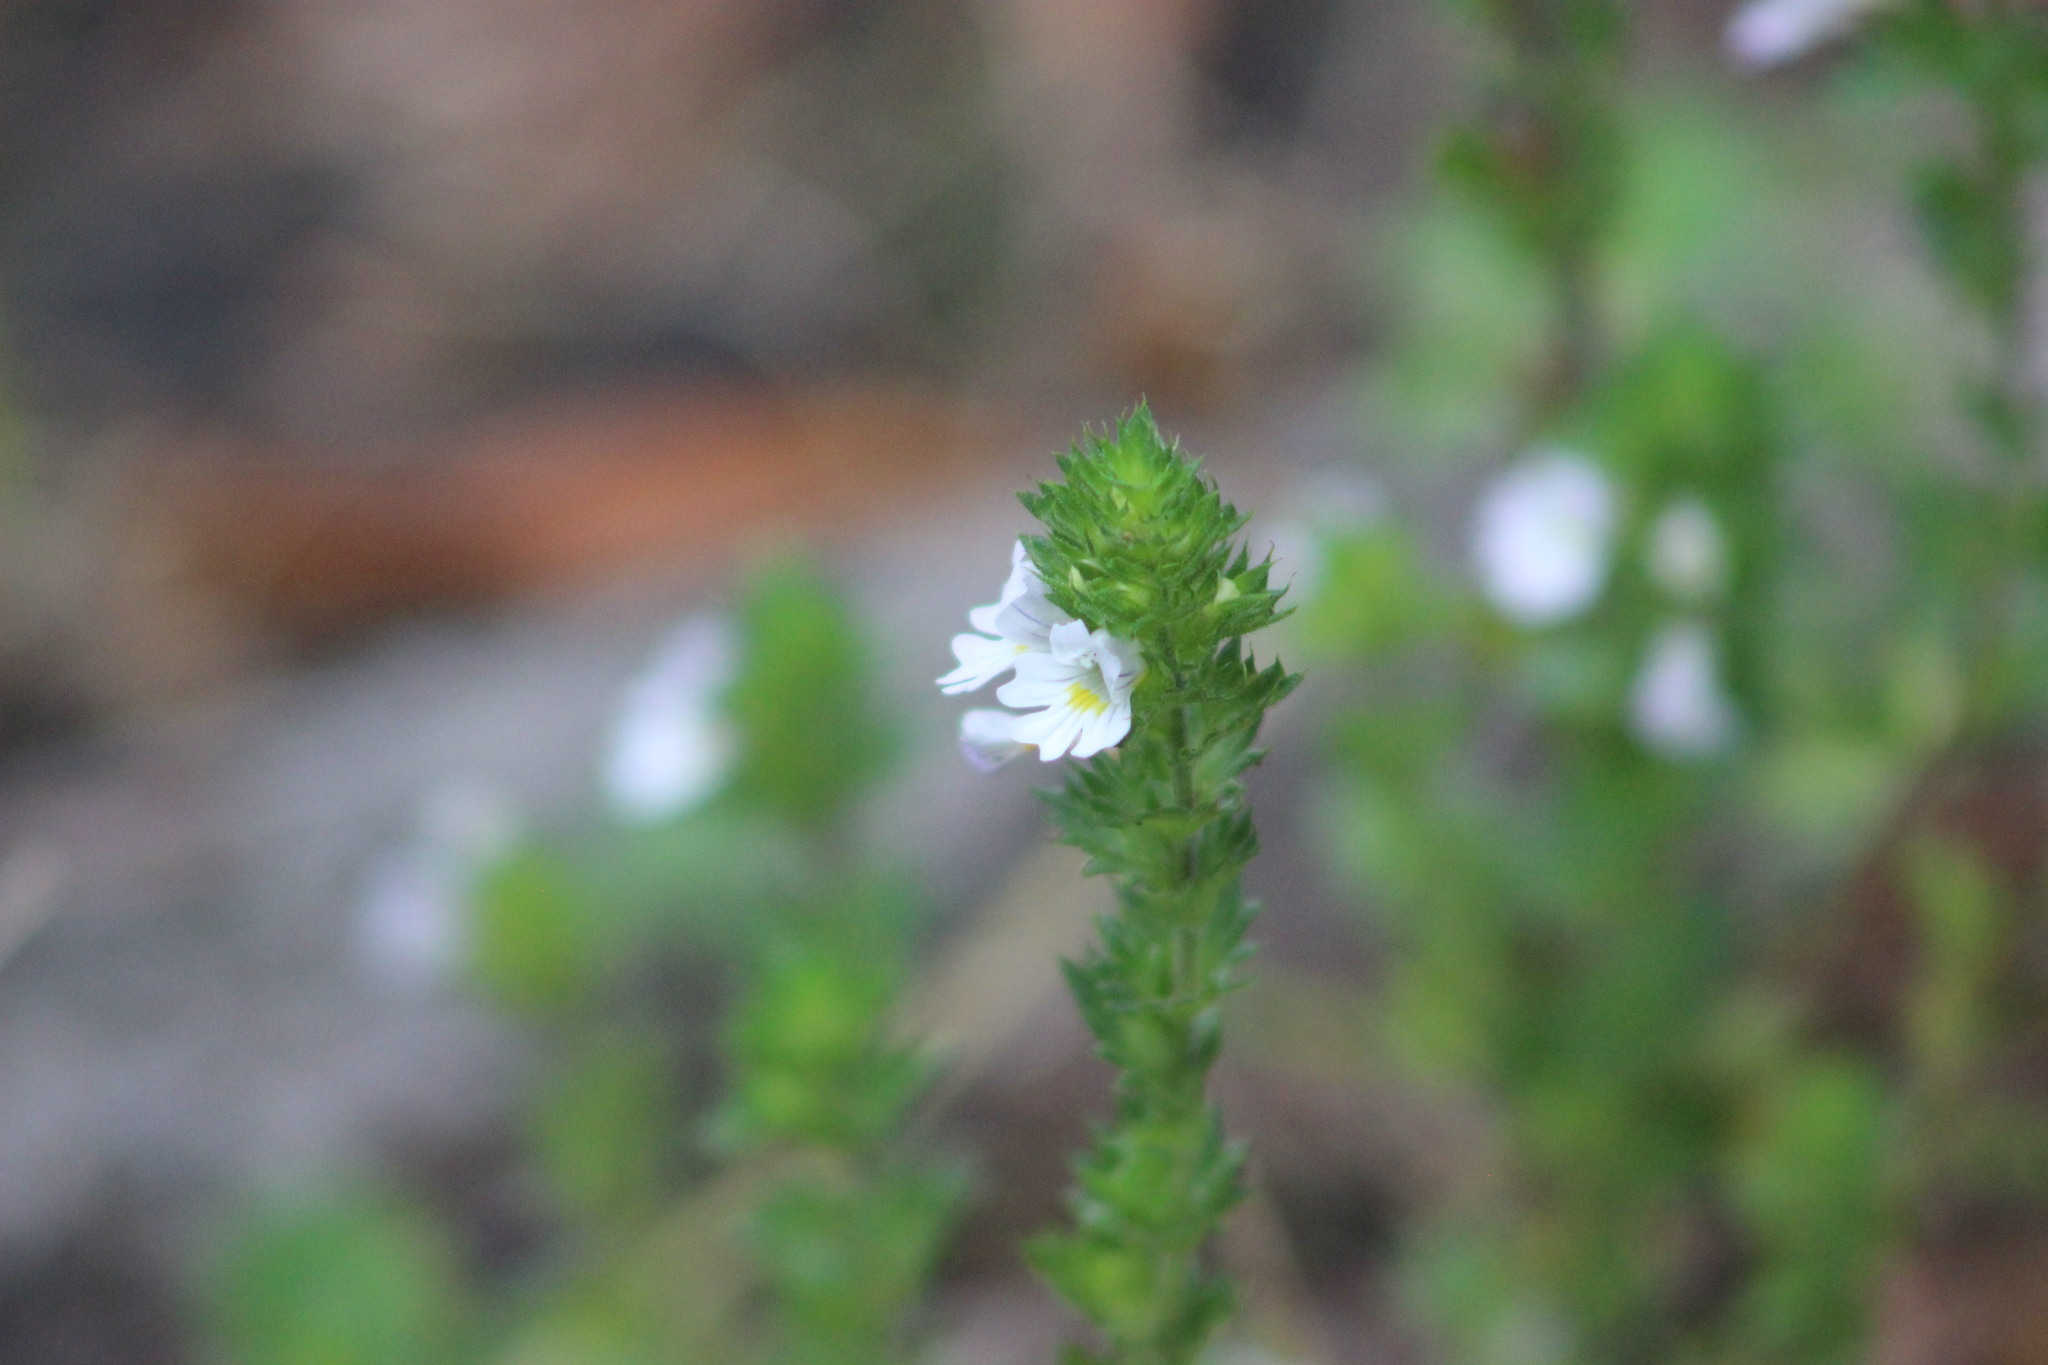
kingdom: Plantae
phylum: Tracheophyta
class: Magnoliopsida
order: Lamiales
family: Orobanchaceae
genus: Euphrasia
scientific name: Euphrasia stricta
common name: Drug eyebright
